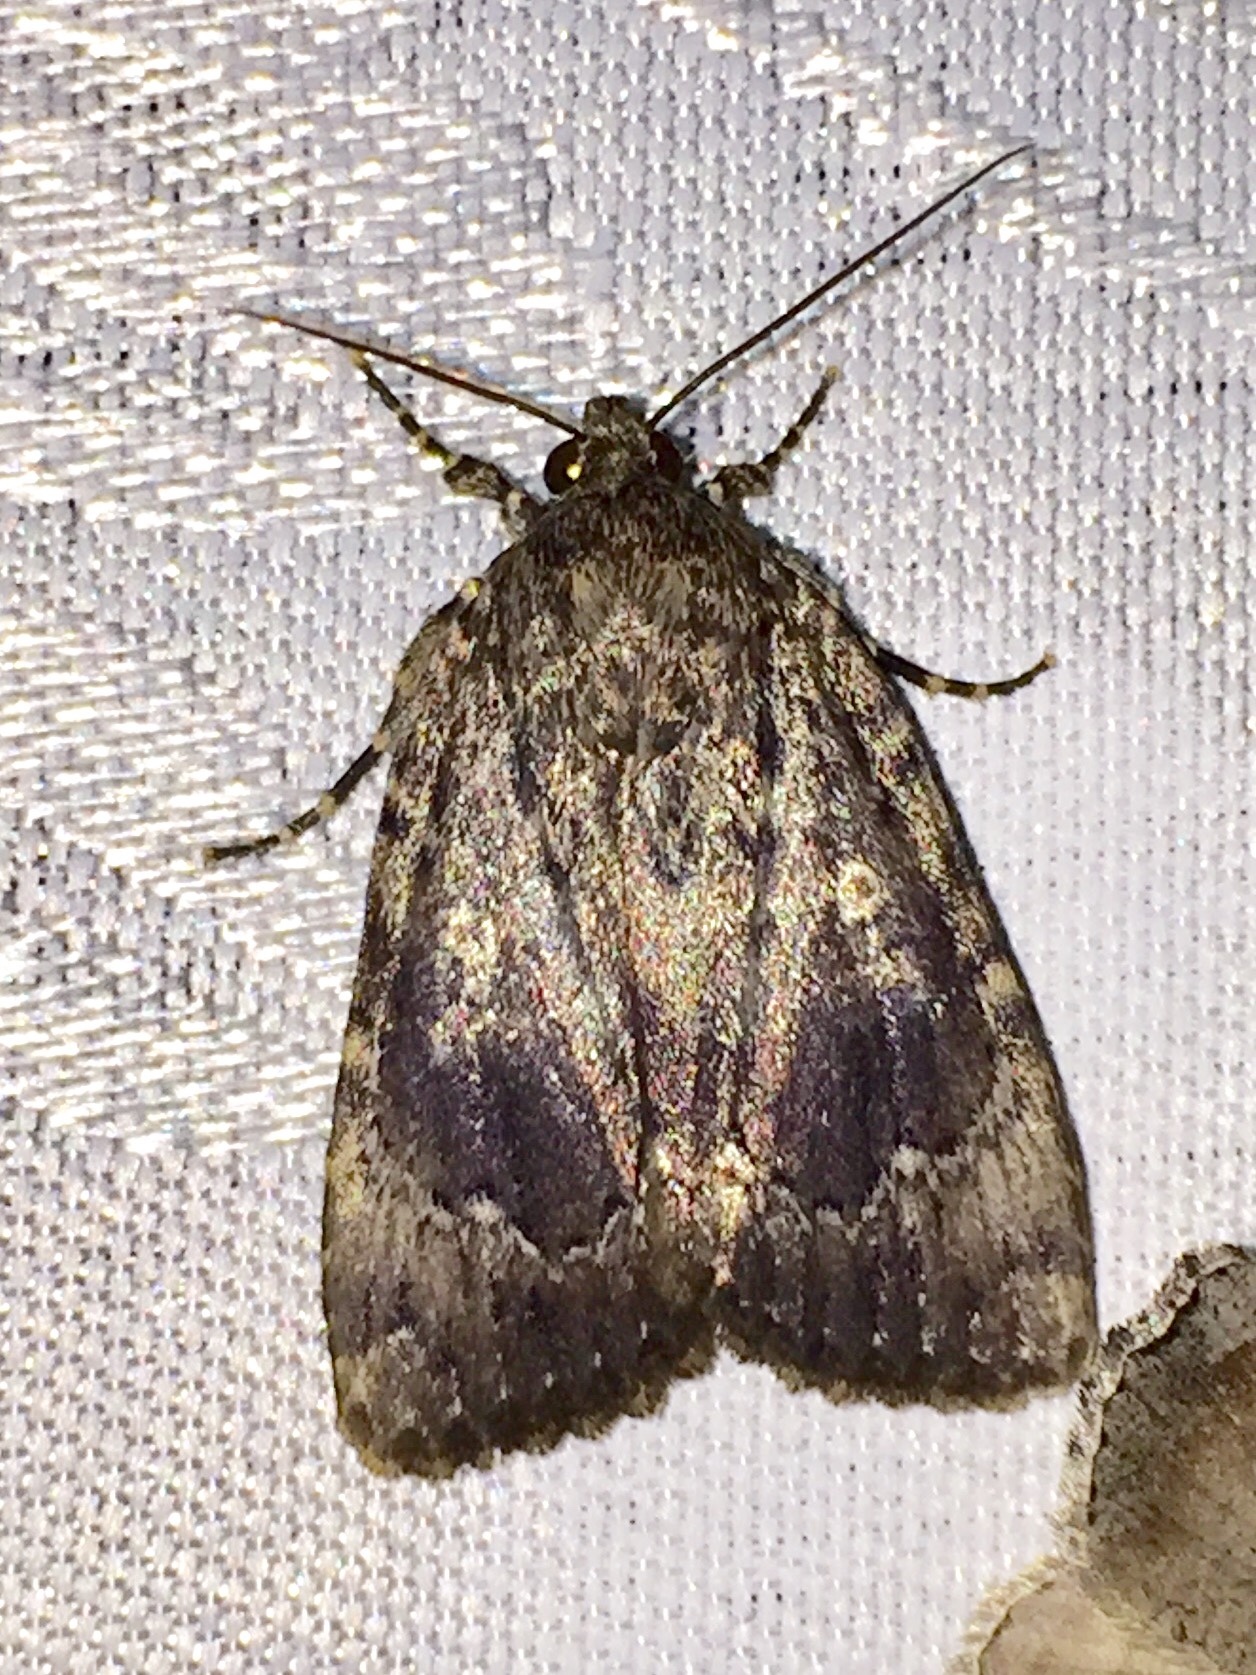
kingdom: Animalia
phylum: Arthropoda
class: Insecta
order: Lepidoptera
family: Noctuidae
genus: Amphipyra
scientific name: Amphipyra pyramidoides
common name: American copper underwing
